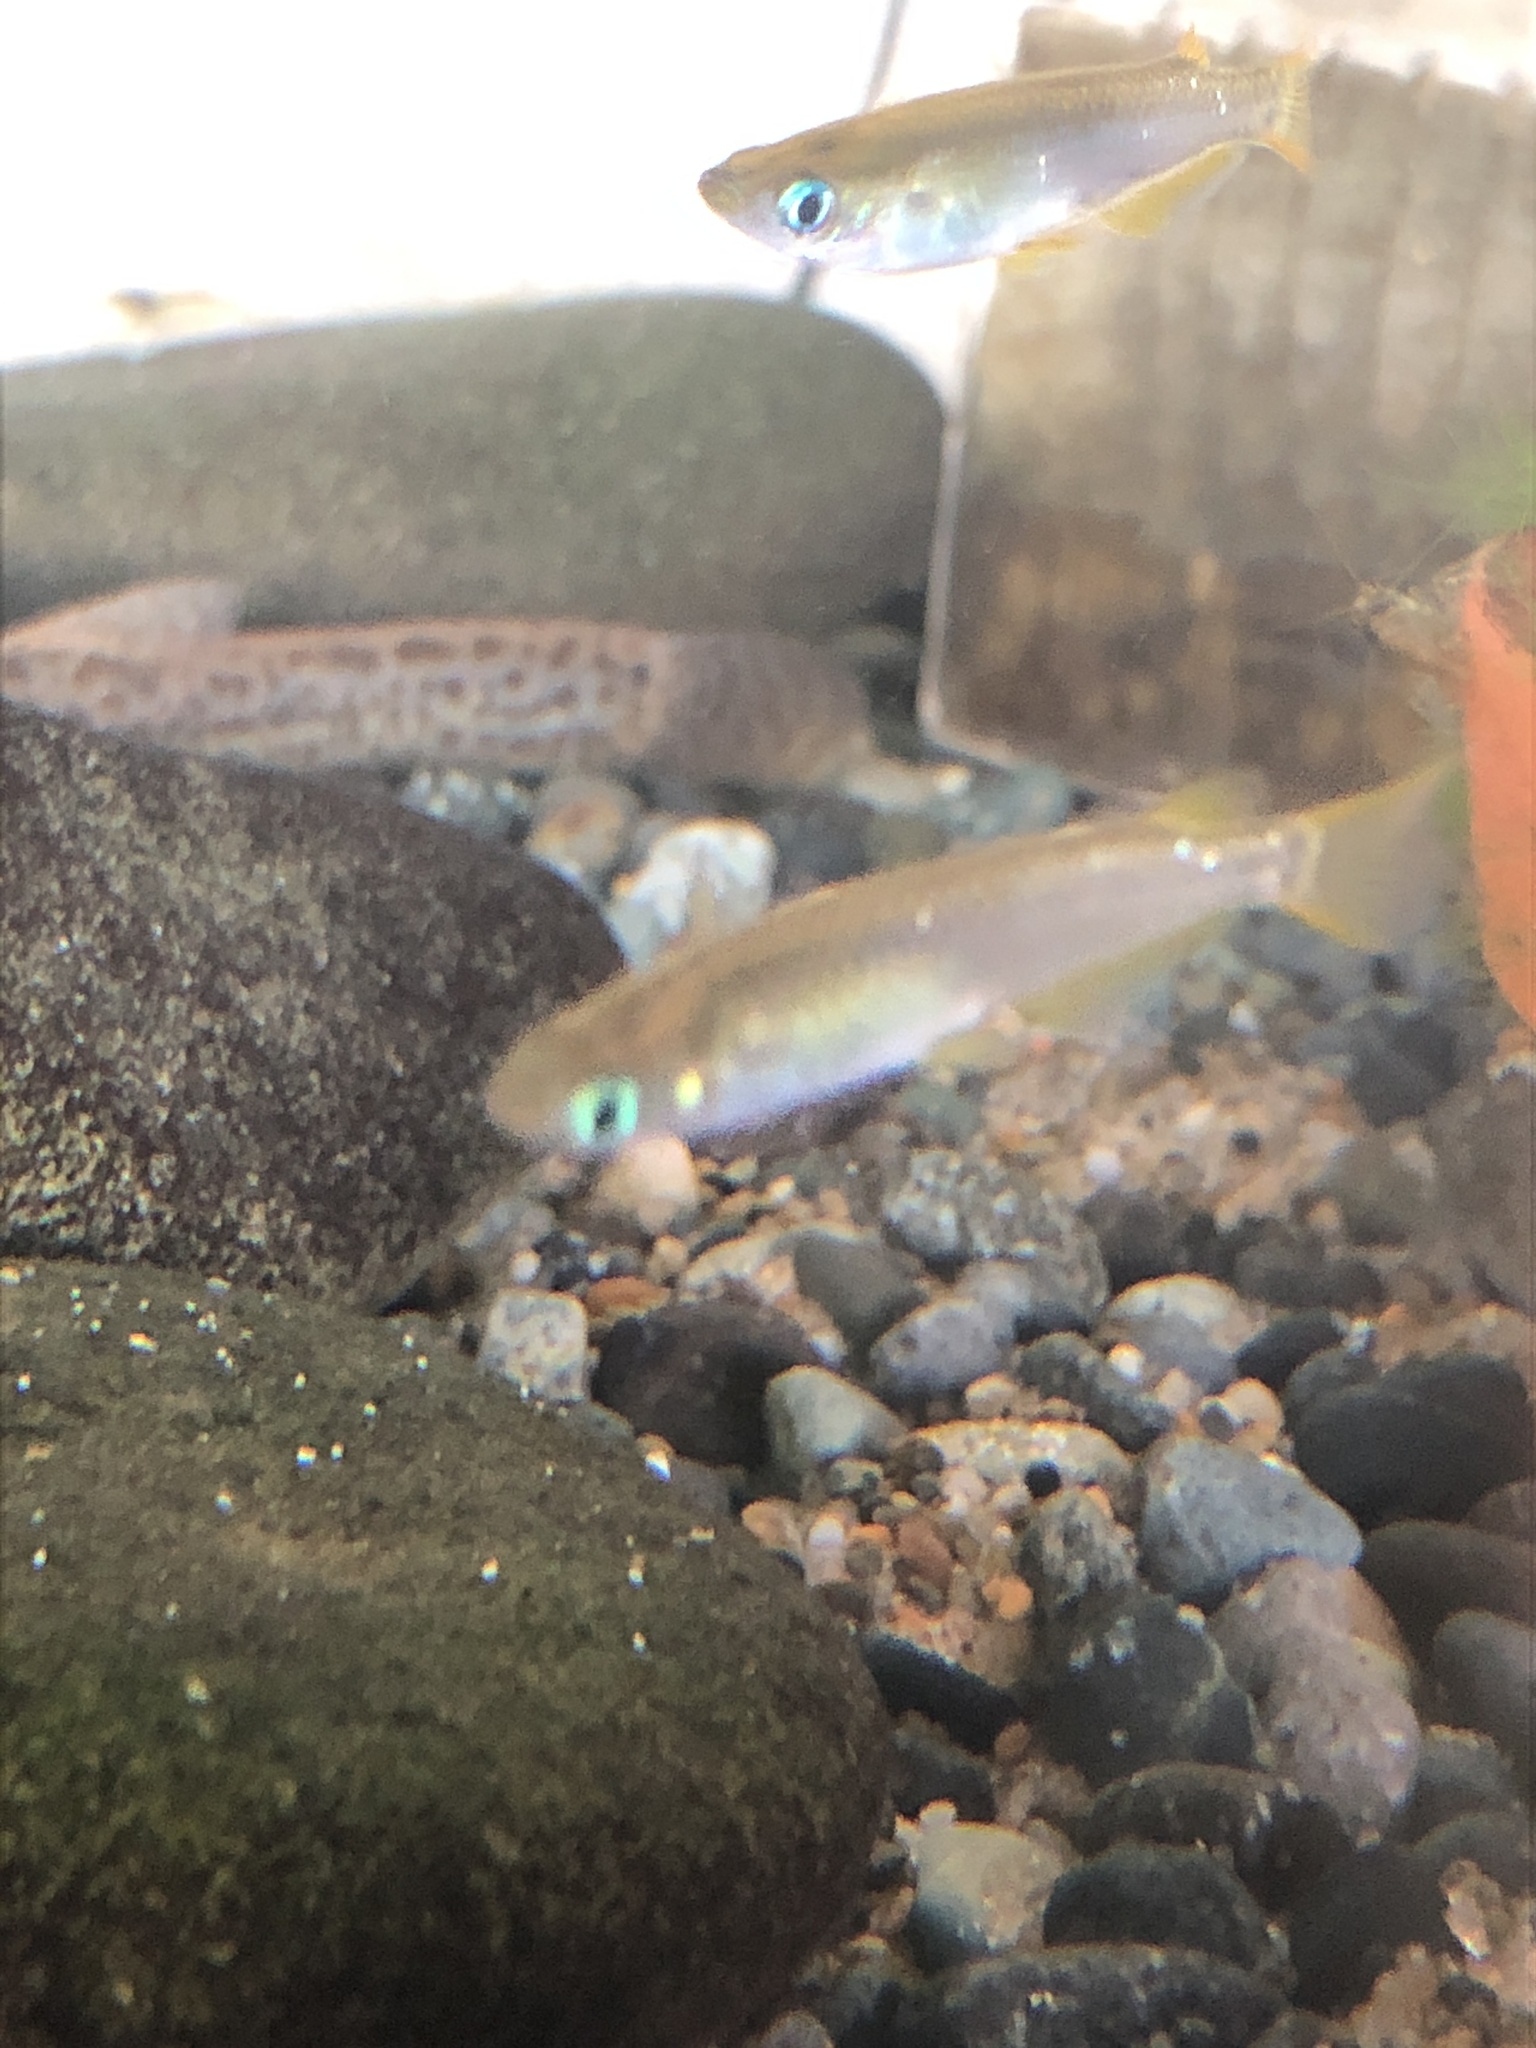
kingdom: Animalia
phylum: Chordata
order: Beloniformes
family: Adrianichthyidae
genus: Oryzias
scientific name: Oryzias latipes
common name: Japanese medaka
